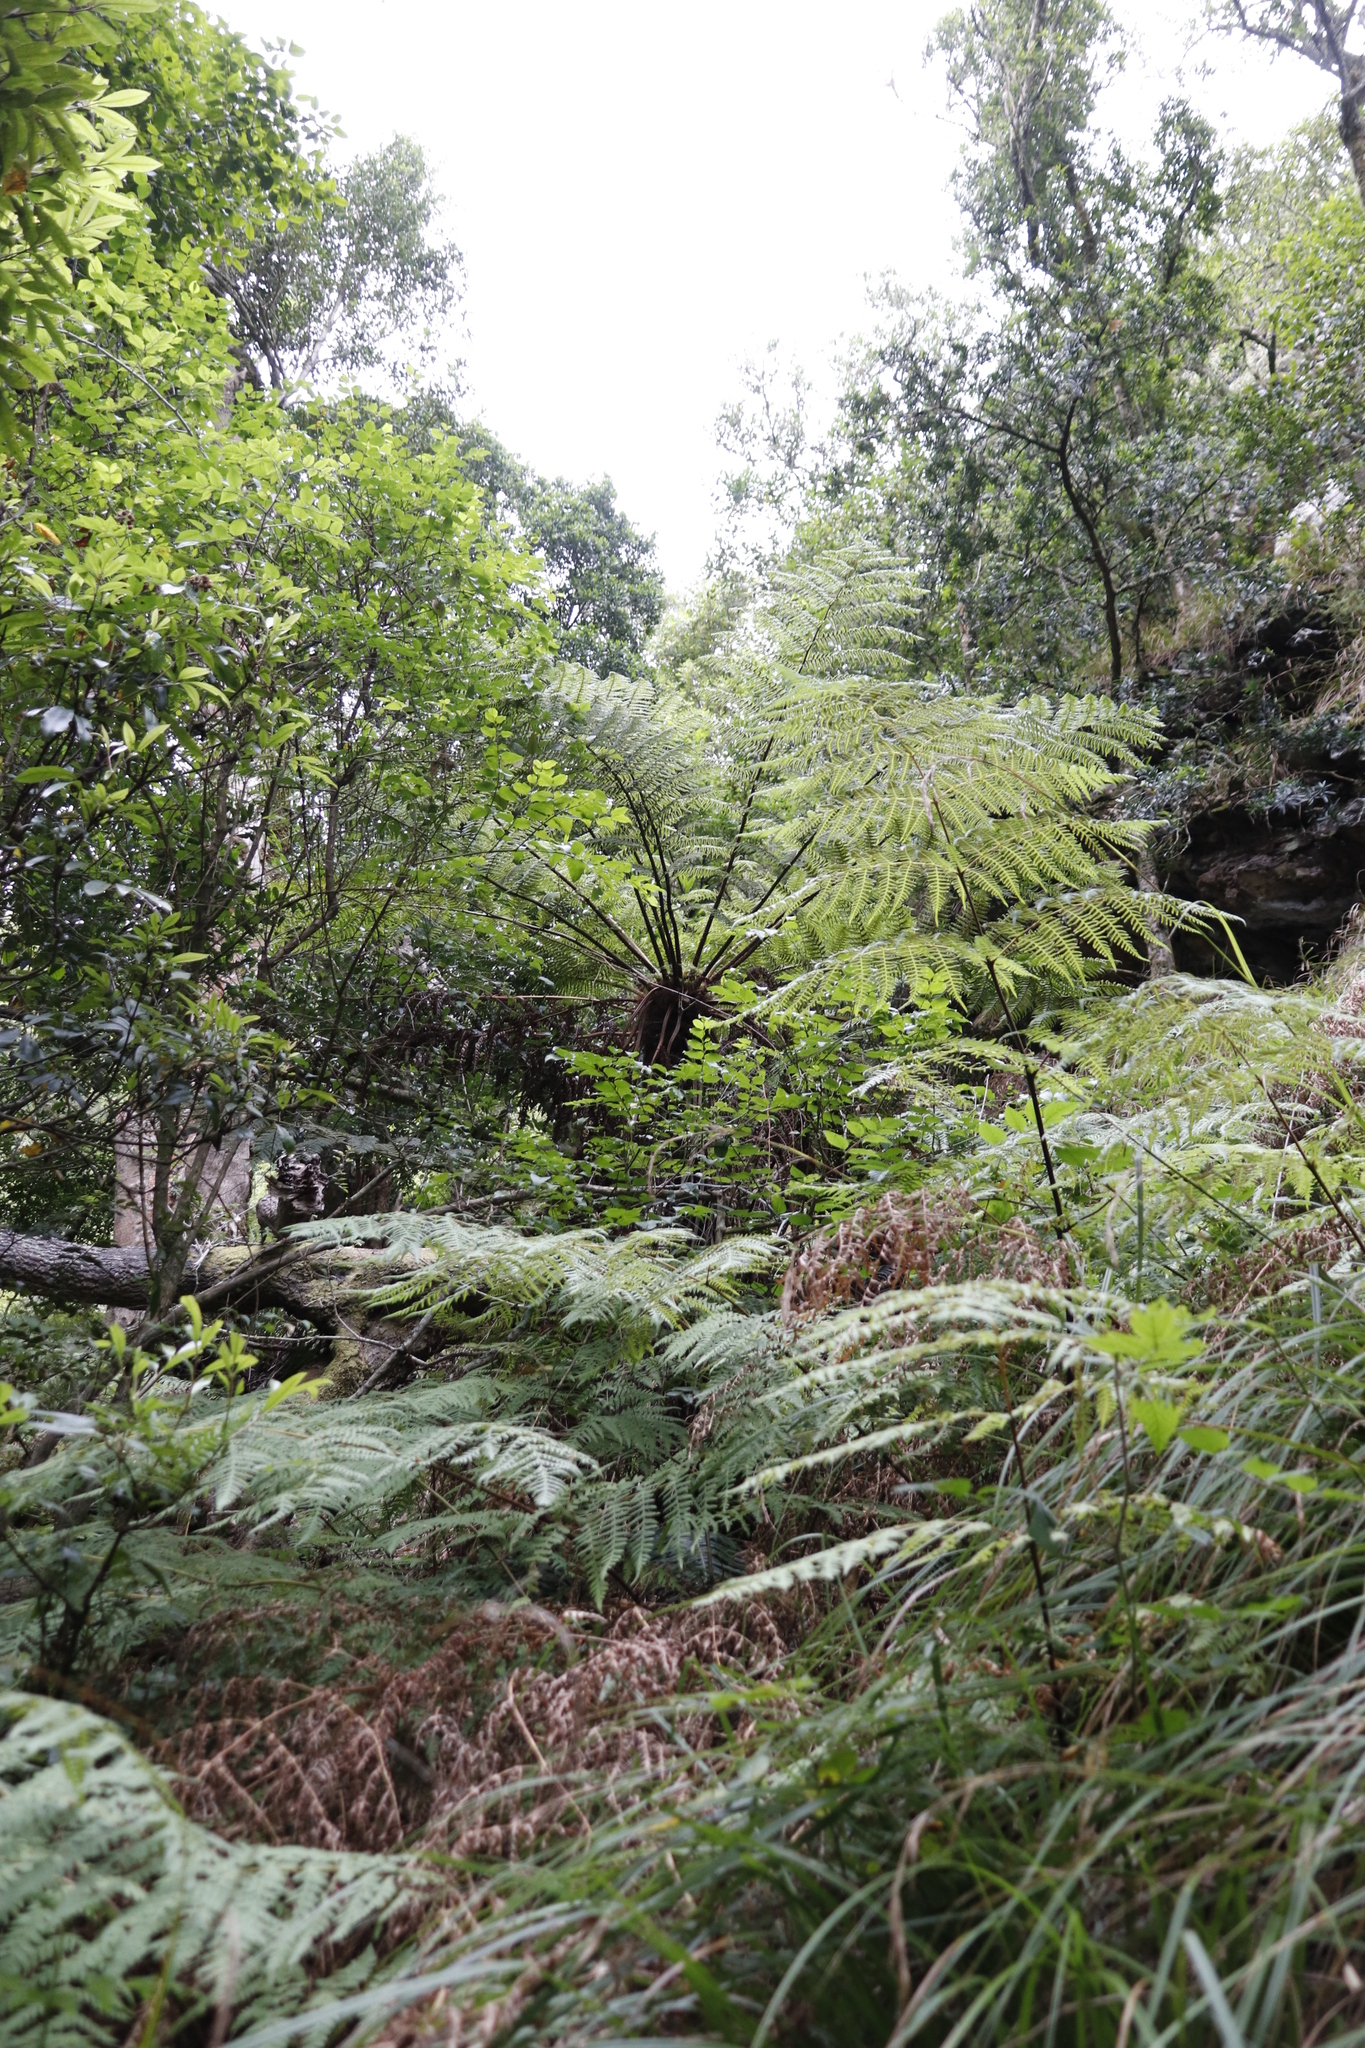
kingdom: Plantae
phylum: Tracheophyta
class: Polypodiopsida
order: Cyatheales
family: Cyatheaceae
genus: Gymnosphaera
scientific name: Gymnosphaera capensis
